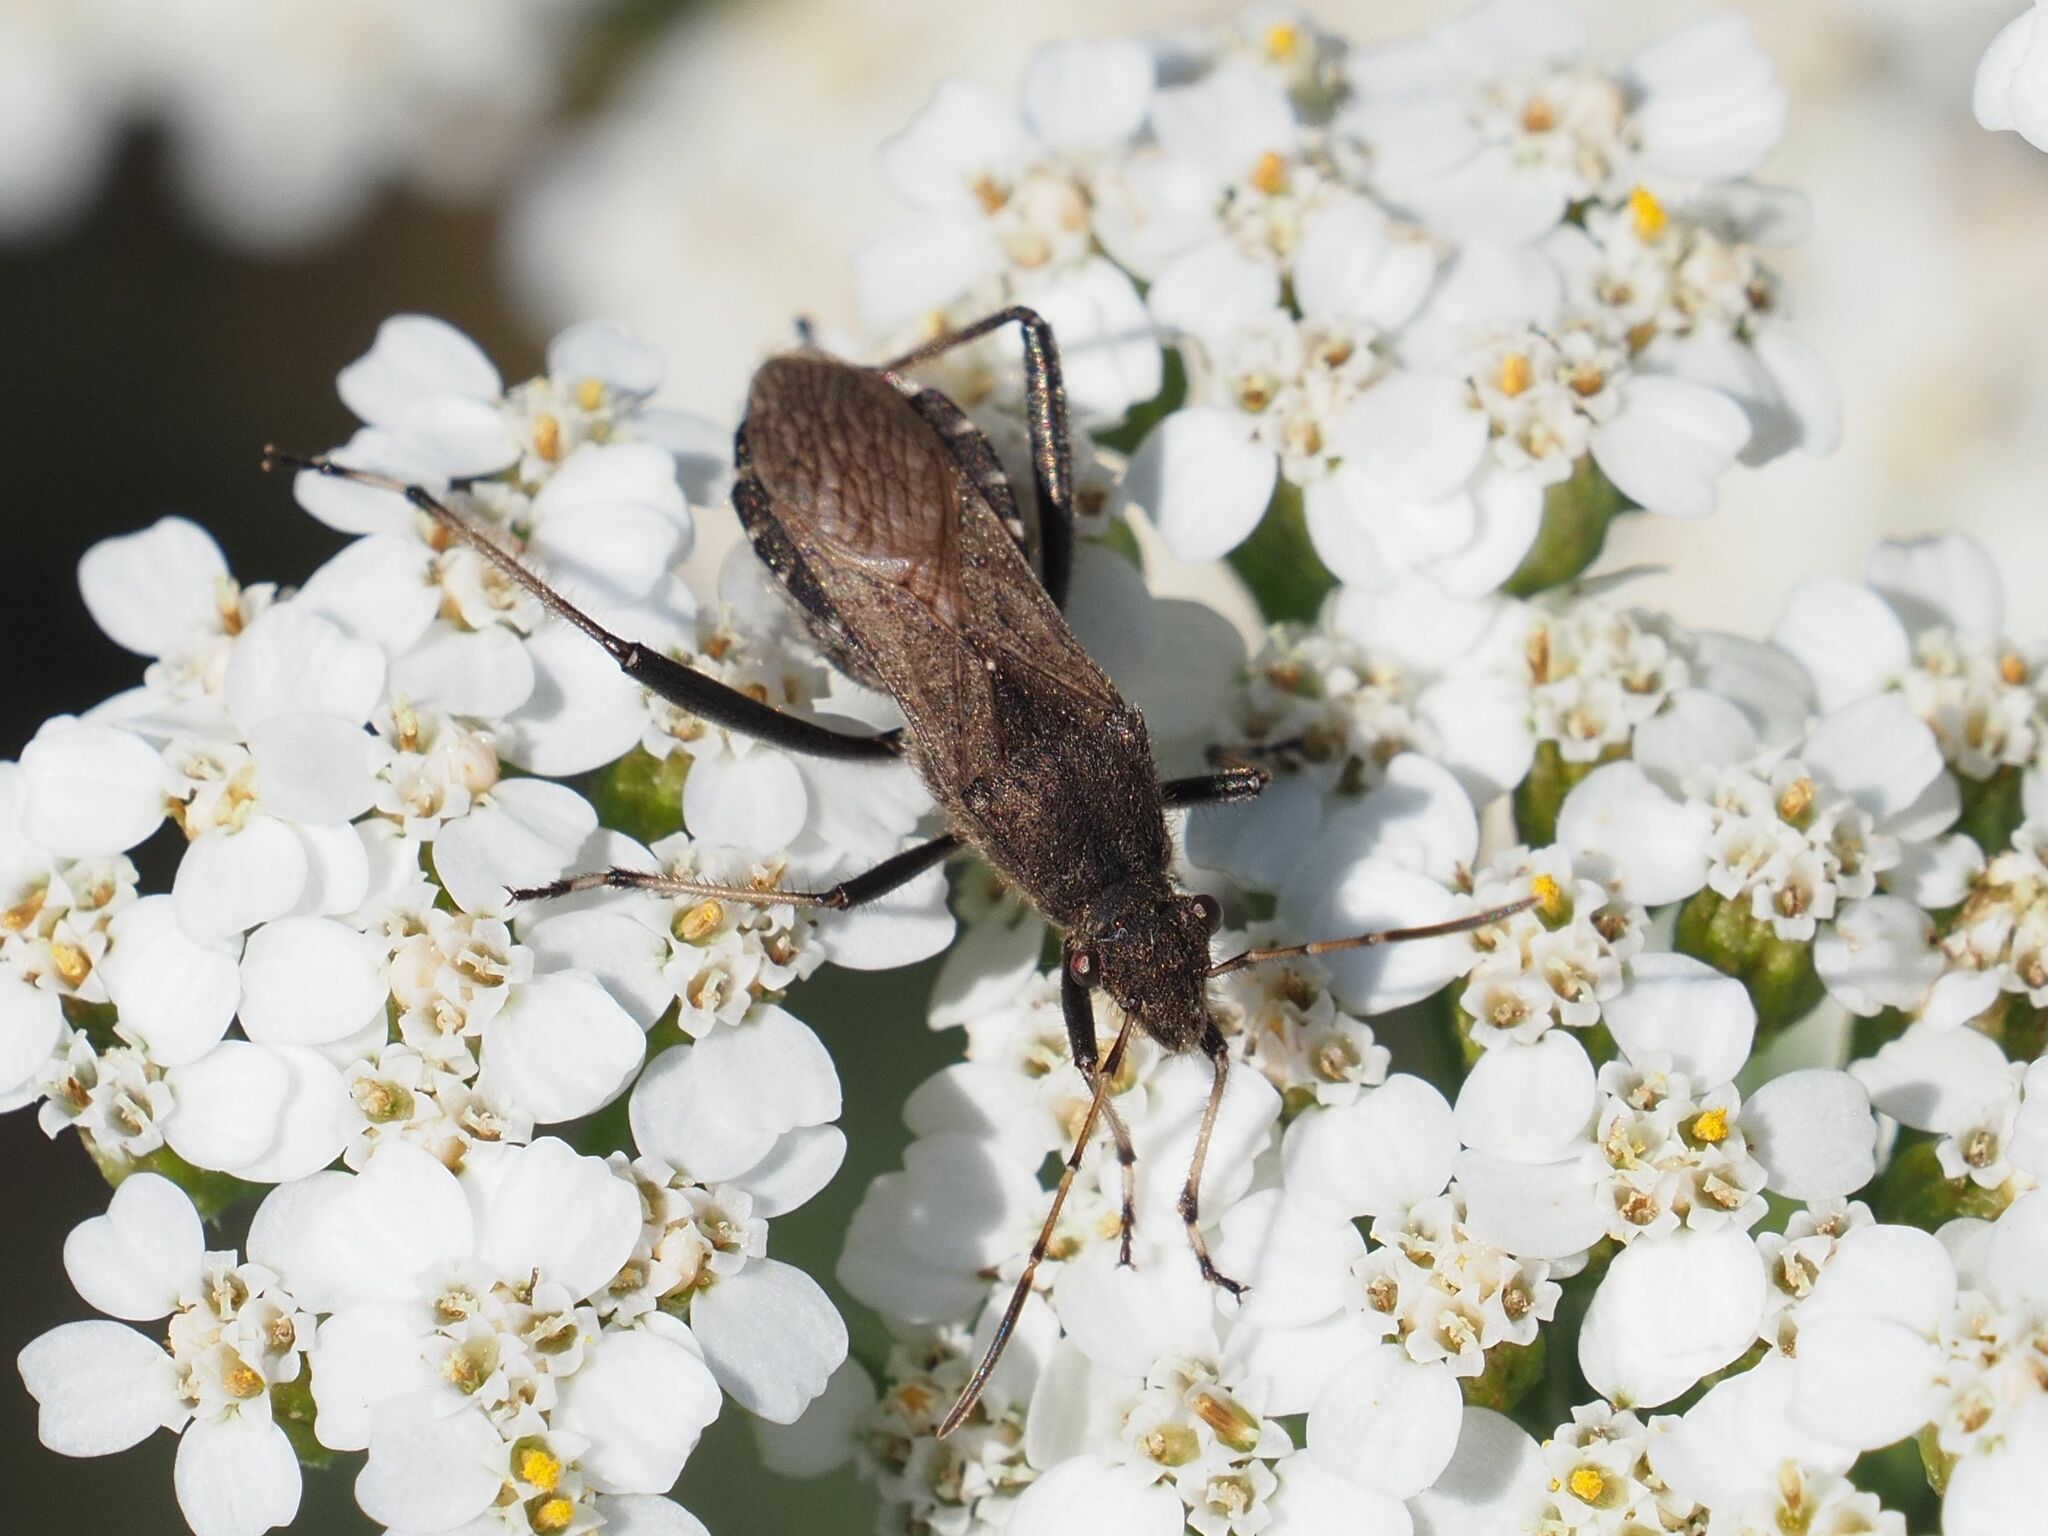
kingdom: Animalia
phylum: Arthropoda
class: Insecta
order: Hemiptera
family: Alydidae
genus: Alydus
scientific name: Alydus calcaratus
